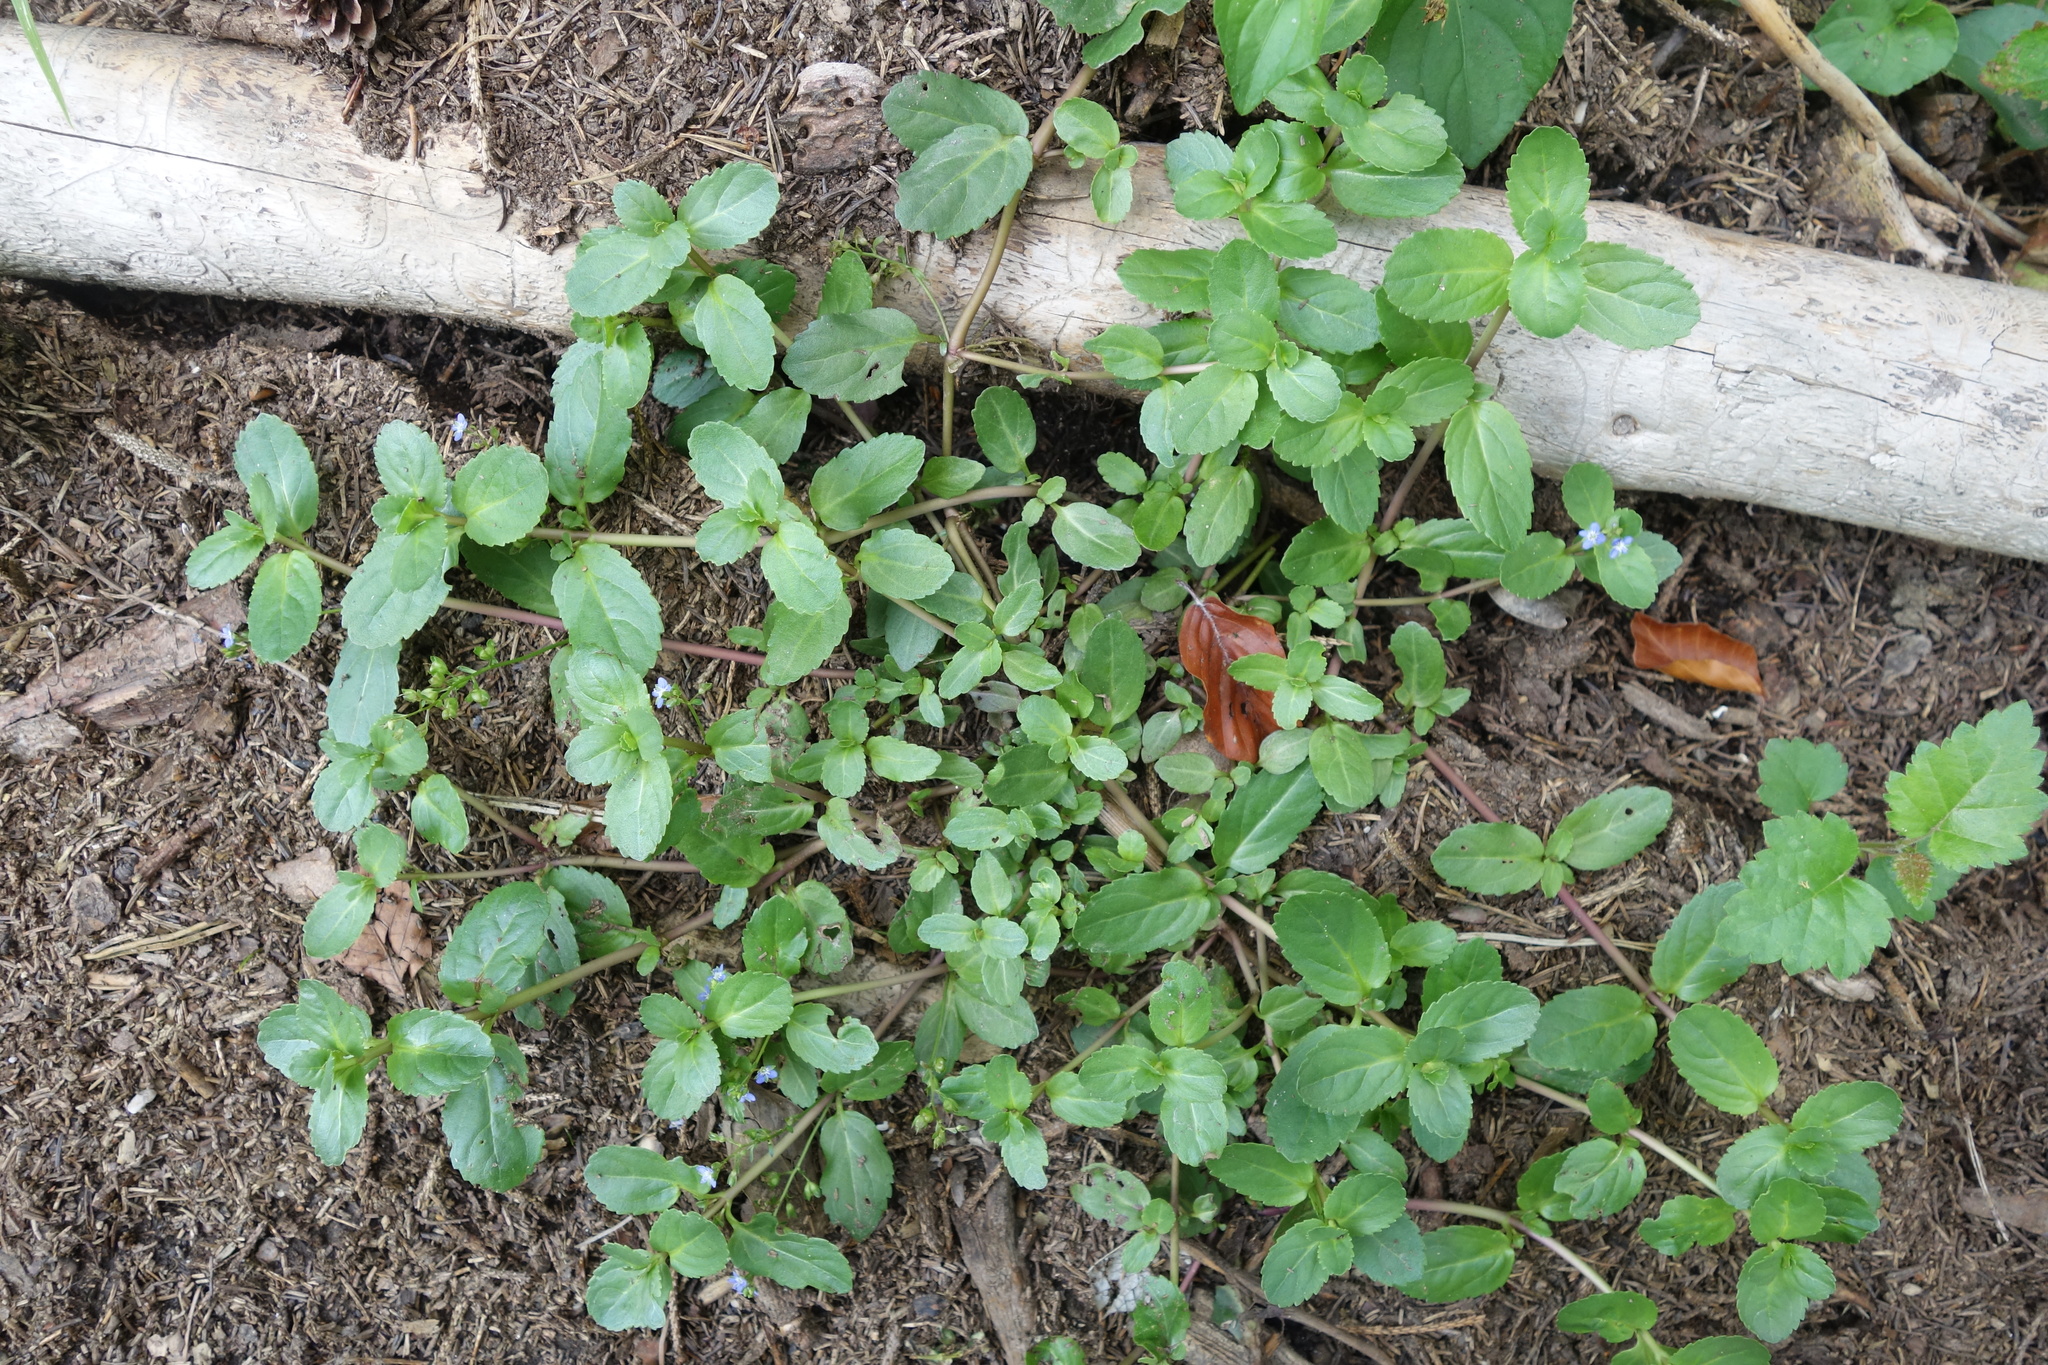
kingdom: Plantae
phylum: Tracheophyta
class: Magnoliopsida
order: Lamiales
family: Plantaginaceae
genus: Veronica
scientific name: Veronica beccabunga
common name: Brooklime
